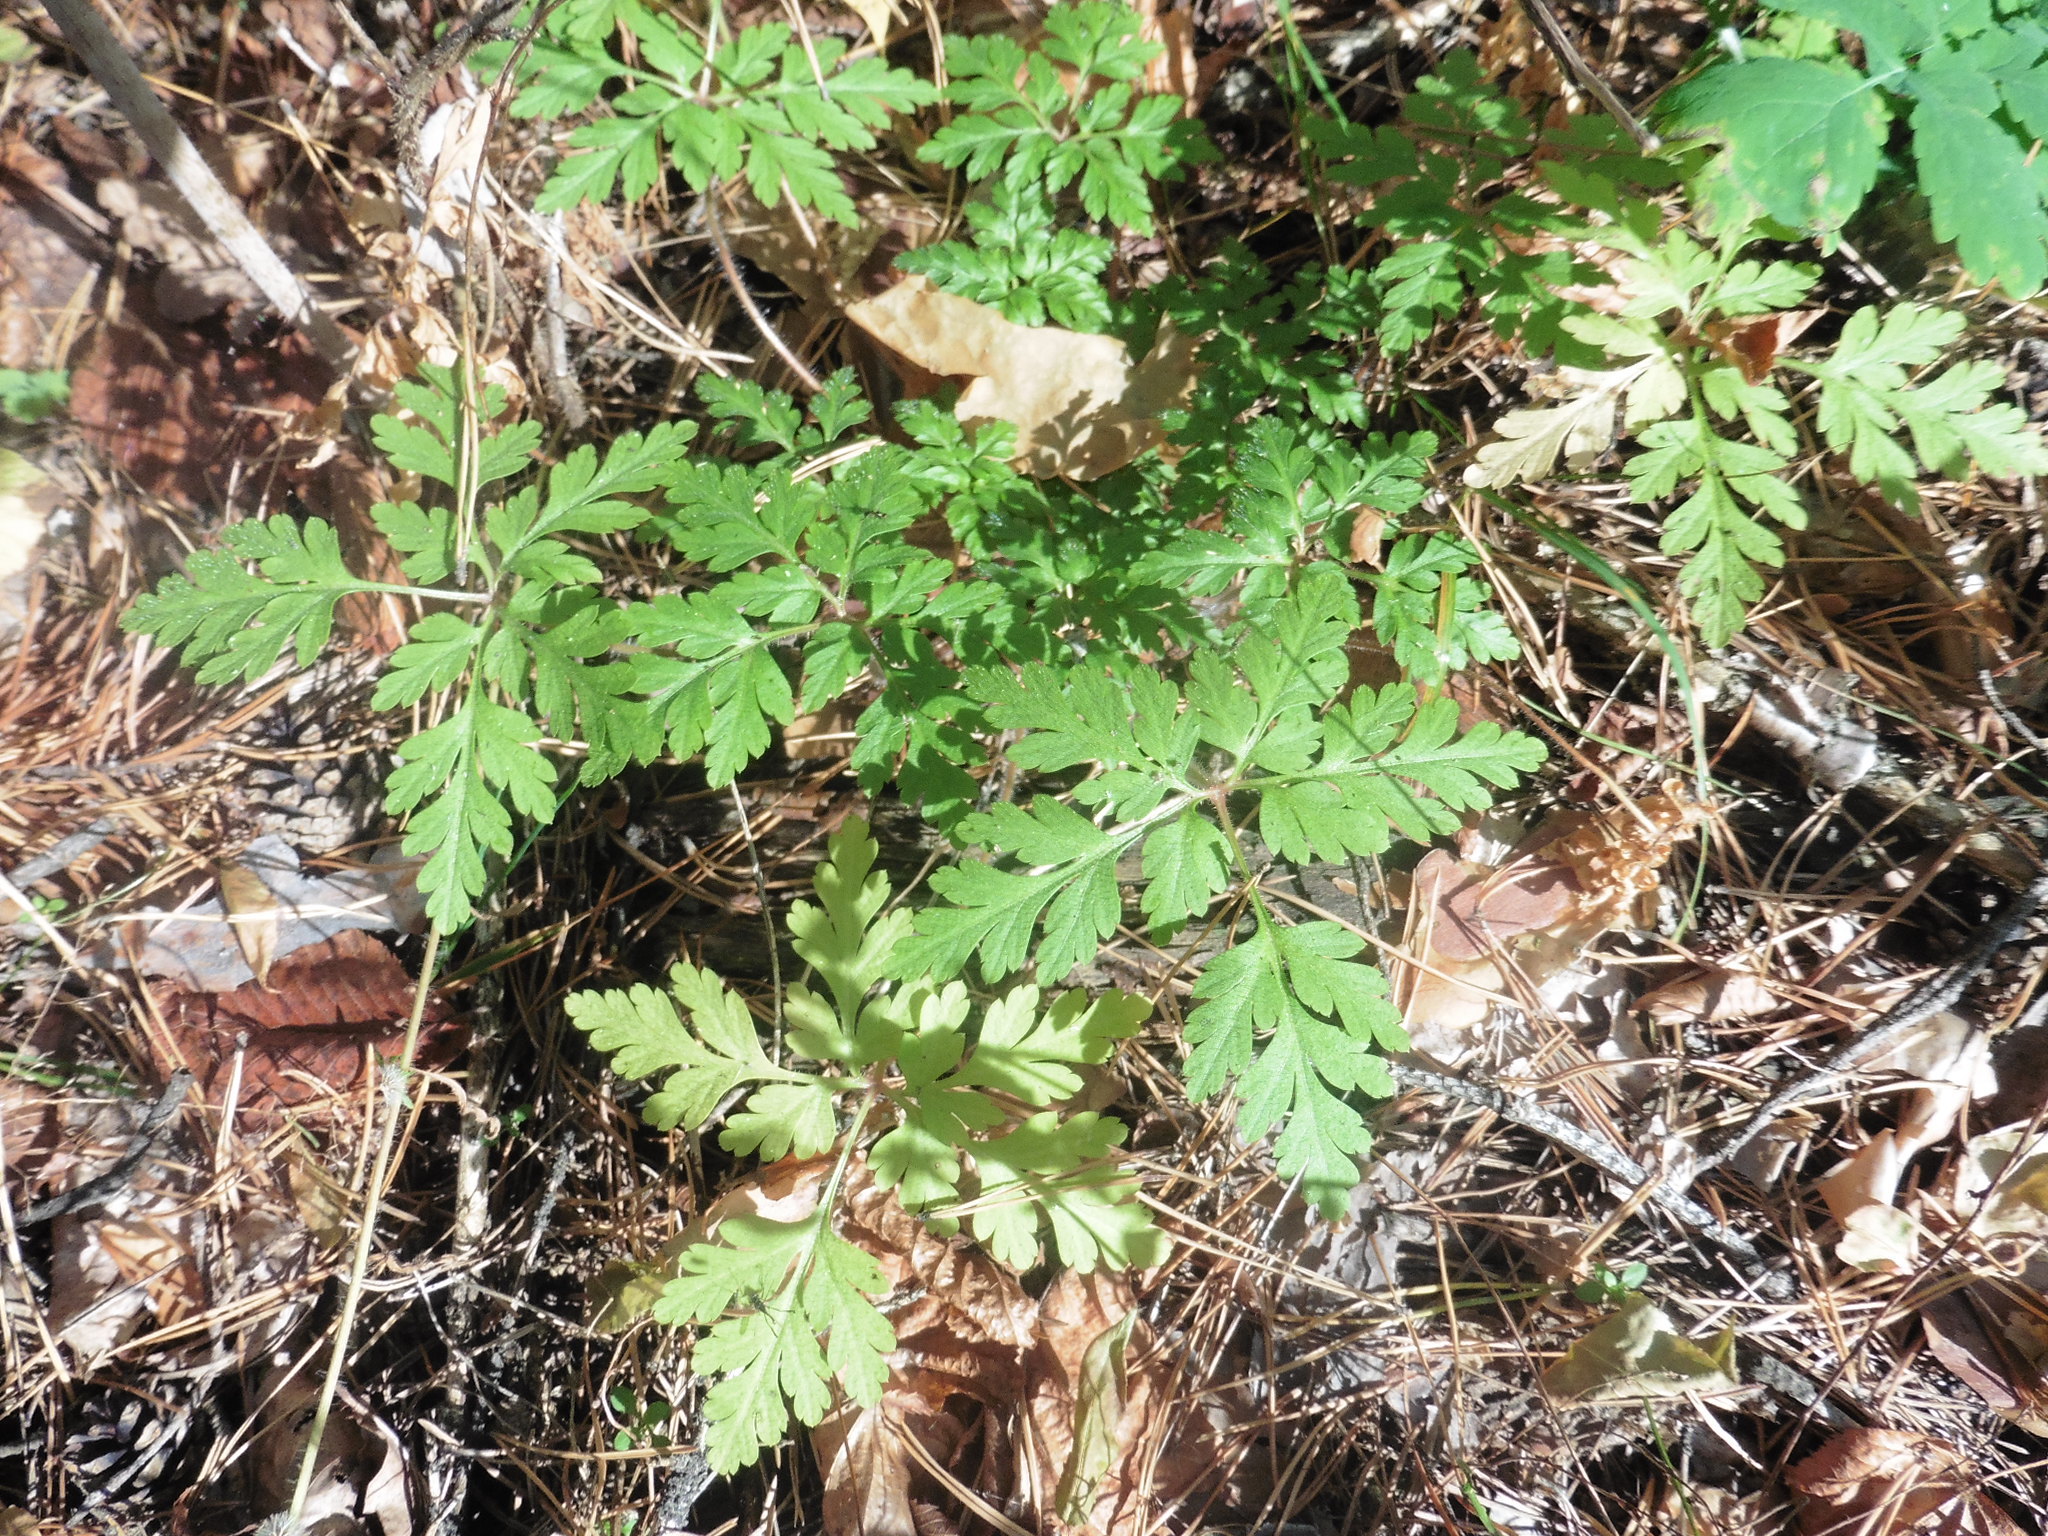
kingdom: Plantae
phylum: Tracheophyta
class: Magnoliopsida
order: Geraniales
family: Geraniaceae
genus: Geranium
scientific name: Geranium robertianum
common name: Herb-robert
